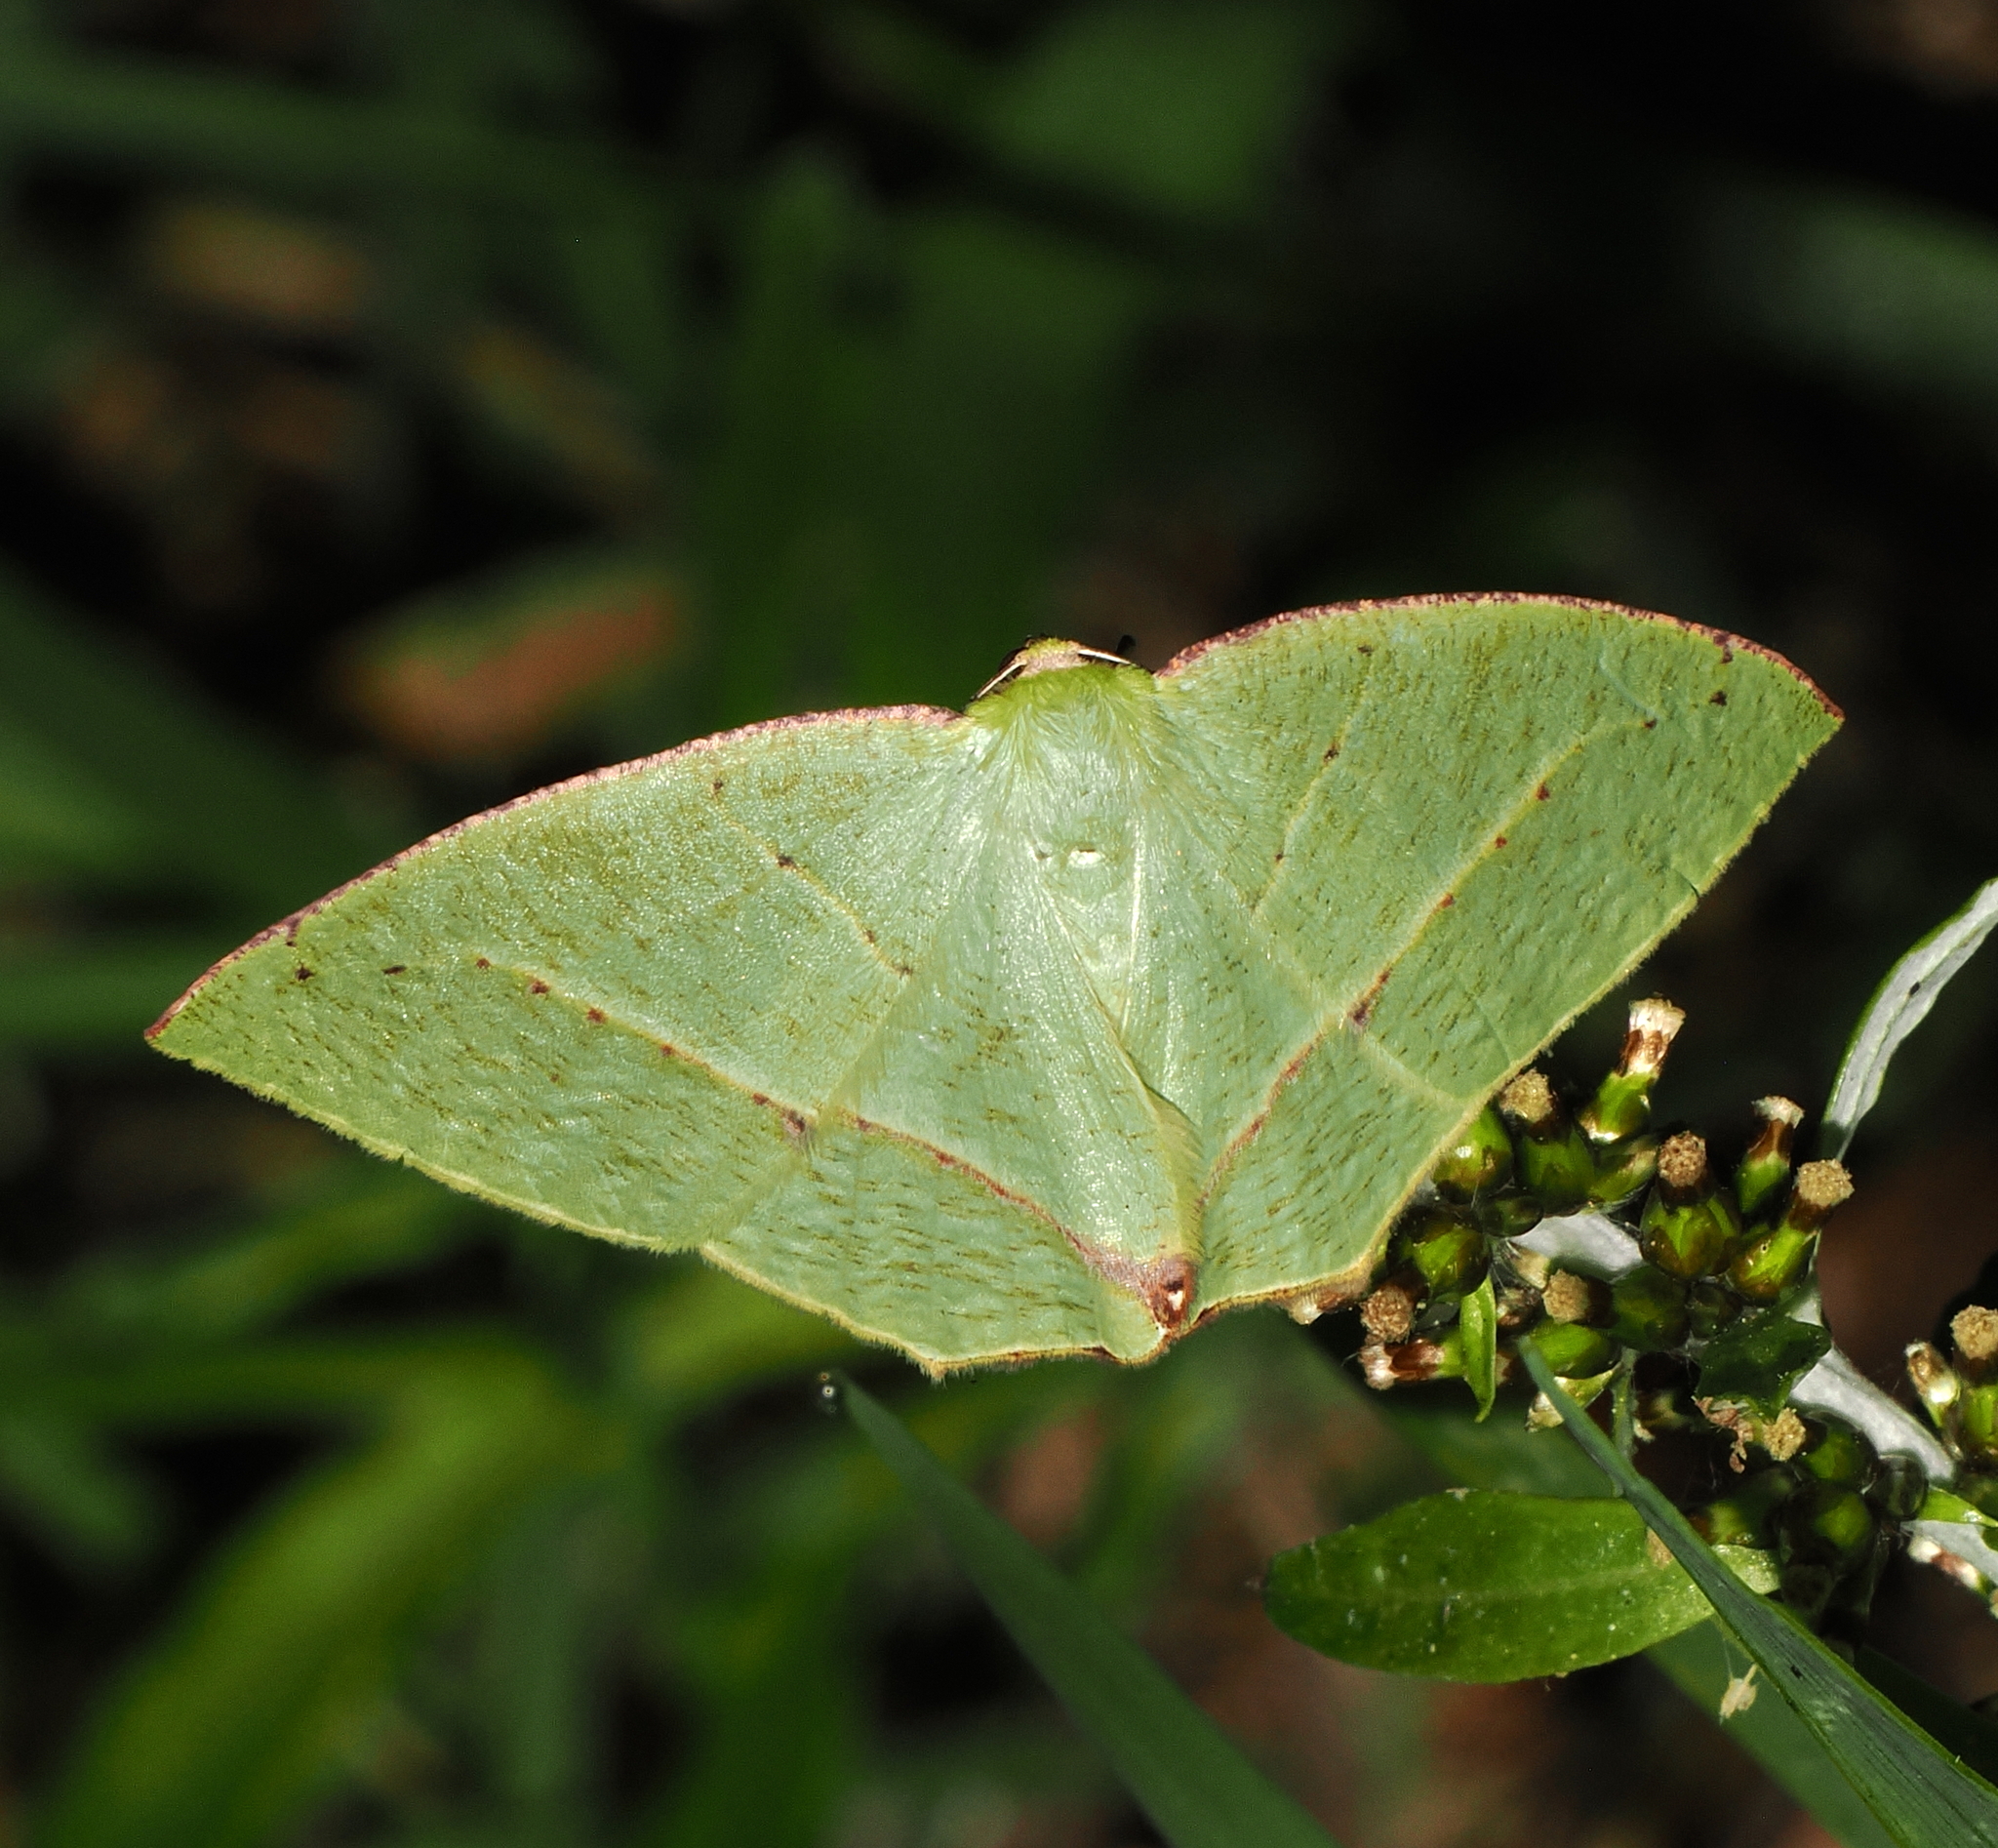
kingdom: Animalia
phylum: Arthropoda
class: Insecta
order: Lepidoptera
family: Geometridae
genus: Phyle
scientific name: Phyle antioquia
